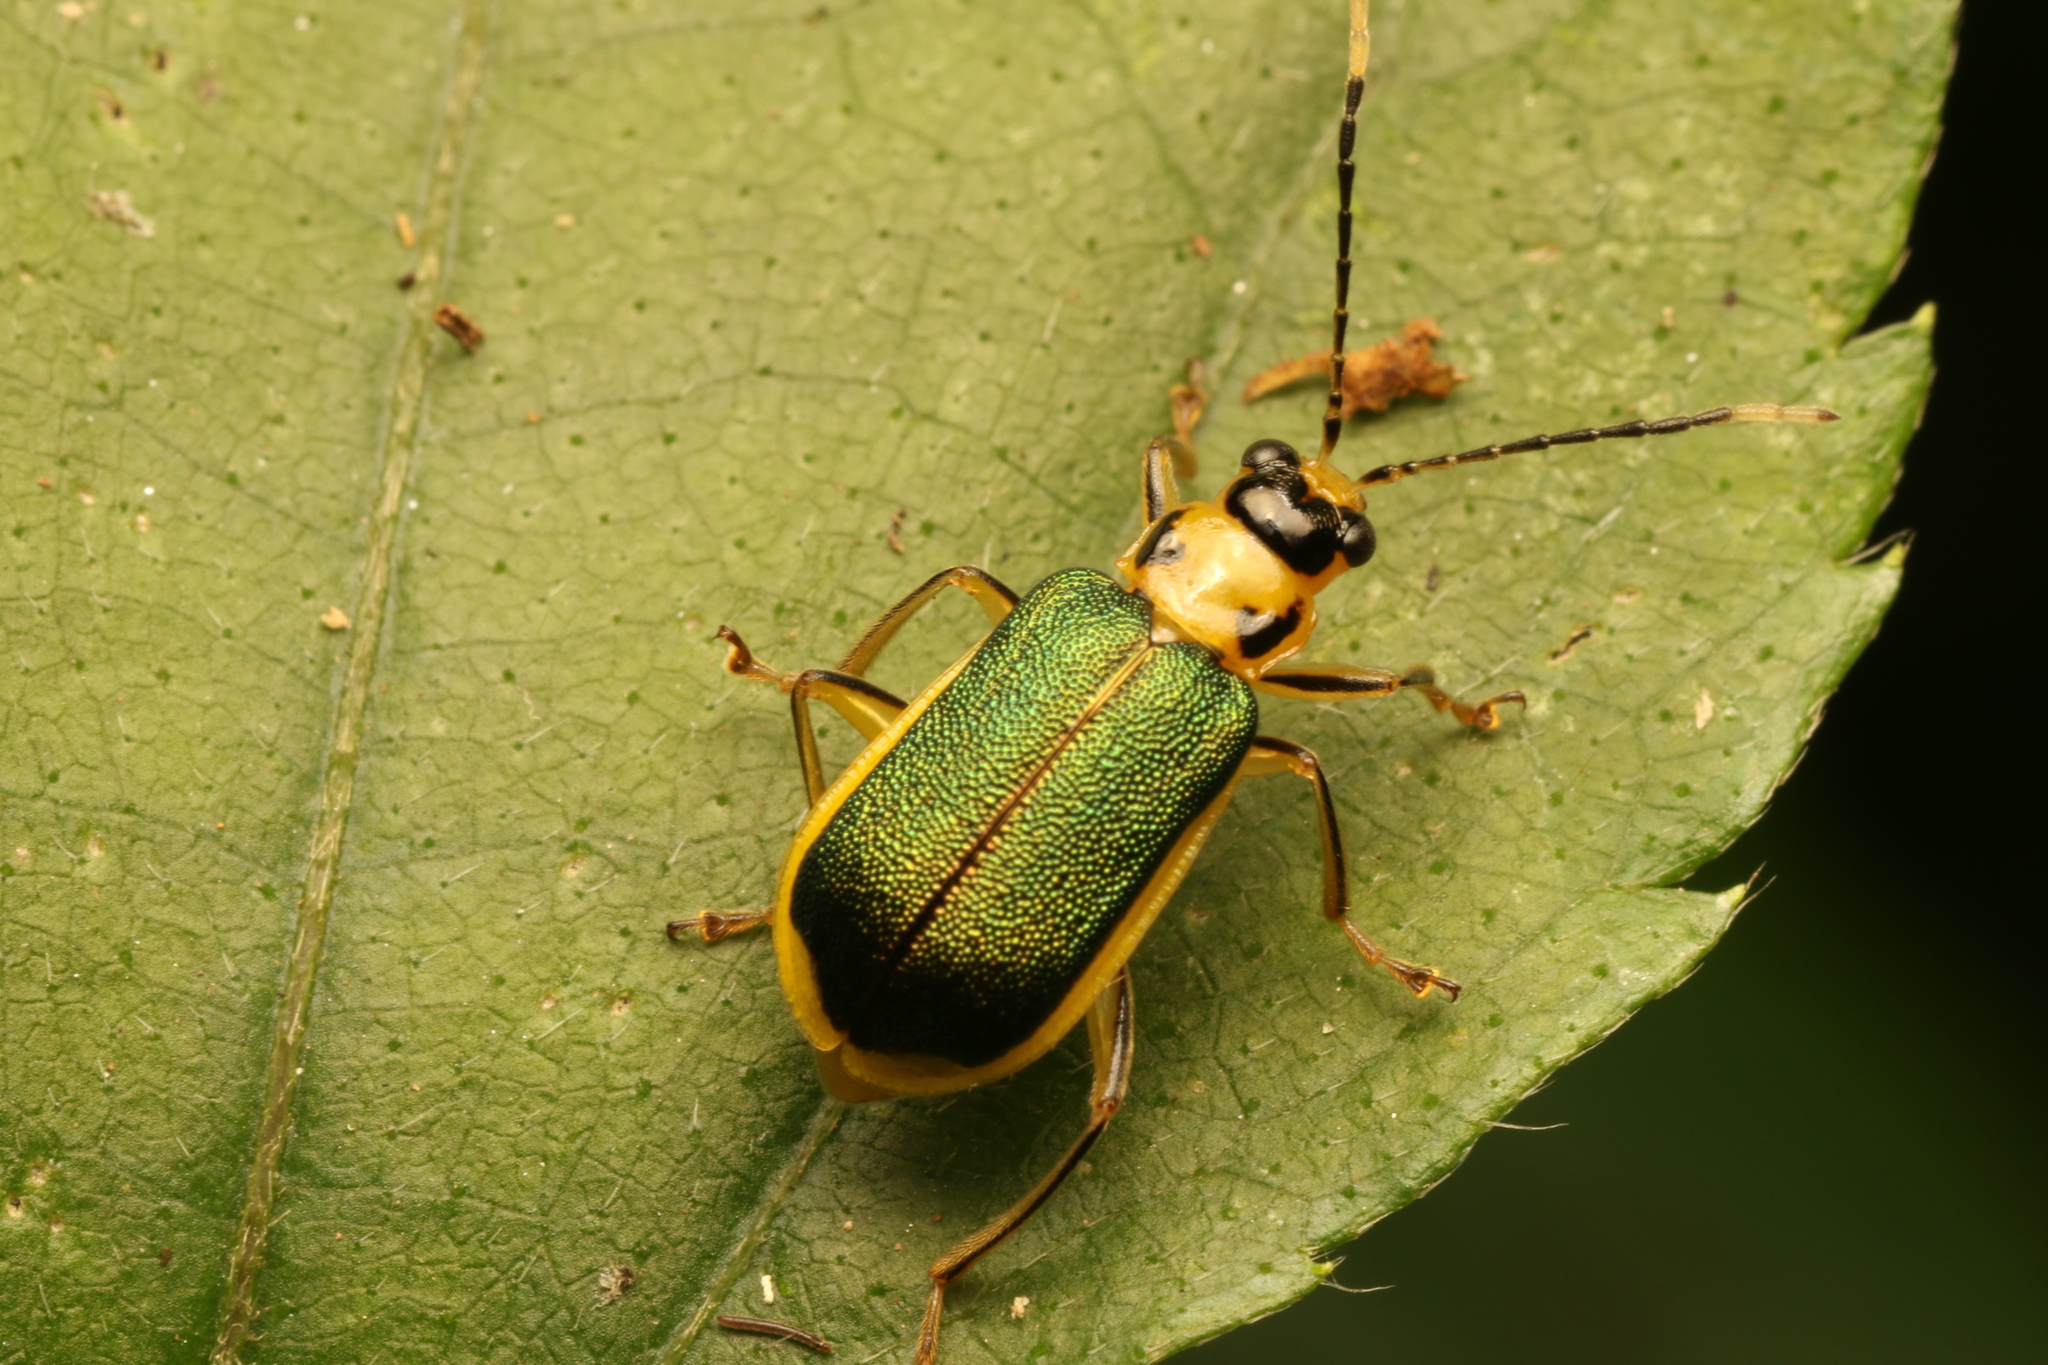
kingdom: Animalia
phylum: Arthropoda
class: Insecta
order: Coleoptera
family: Chrysomelidae
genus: Buckibrotica
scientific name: Buckibrotica
